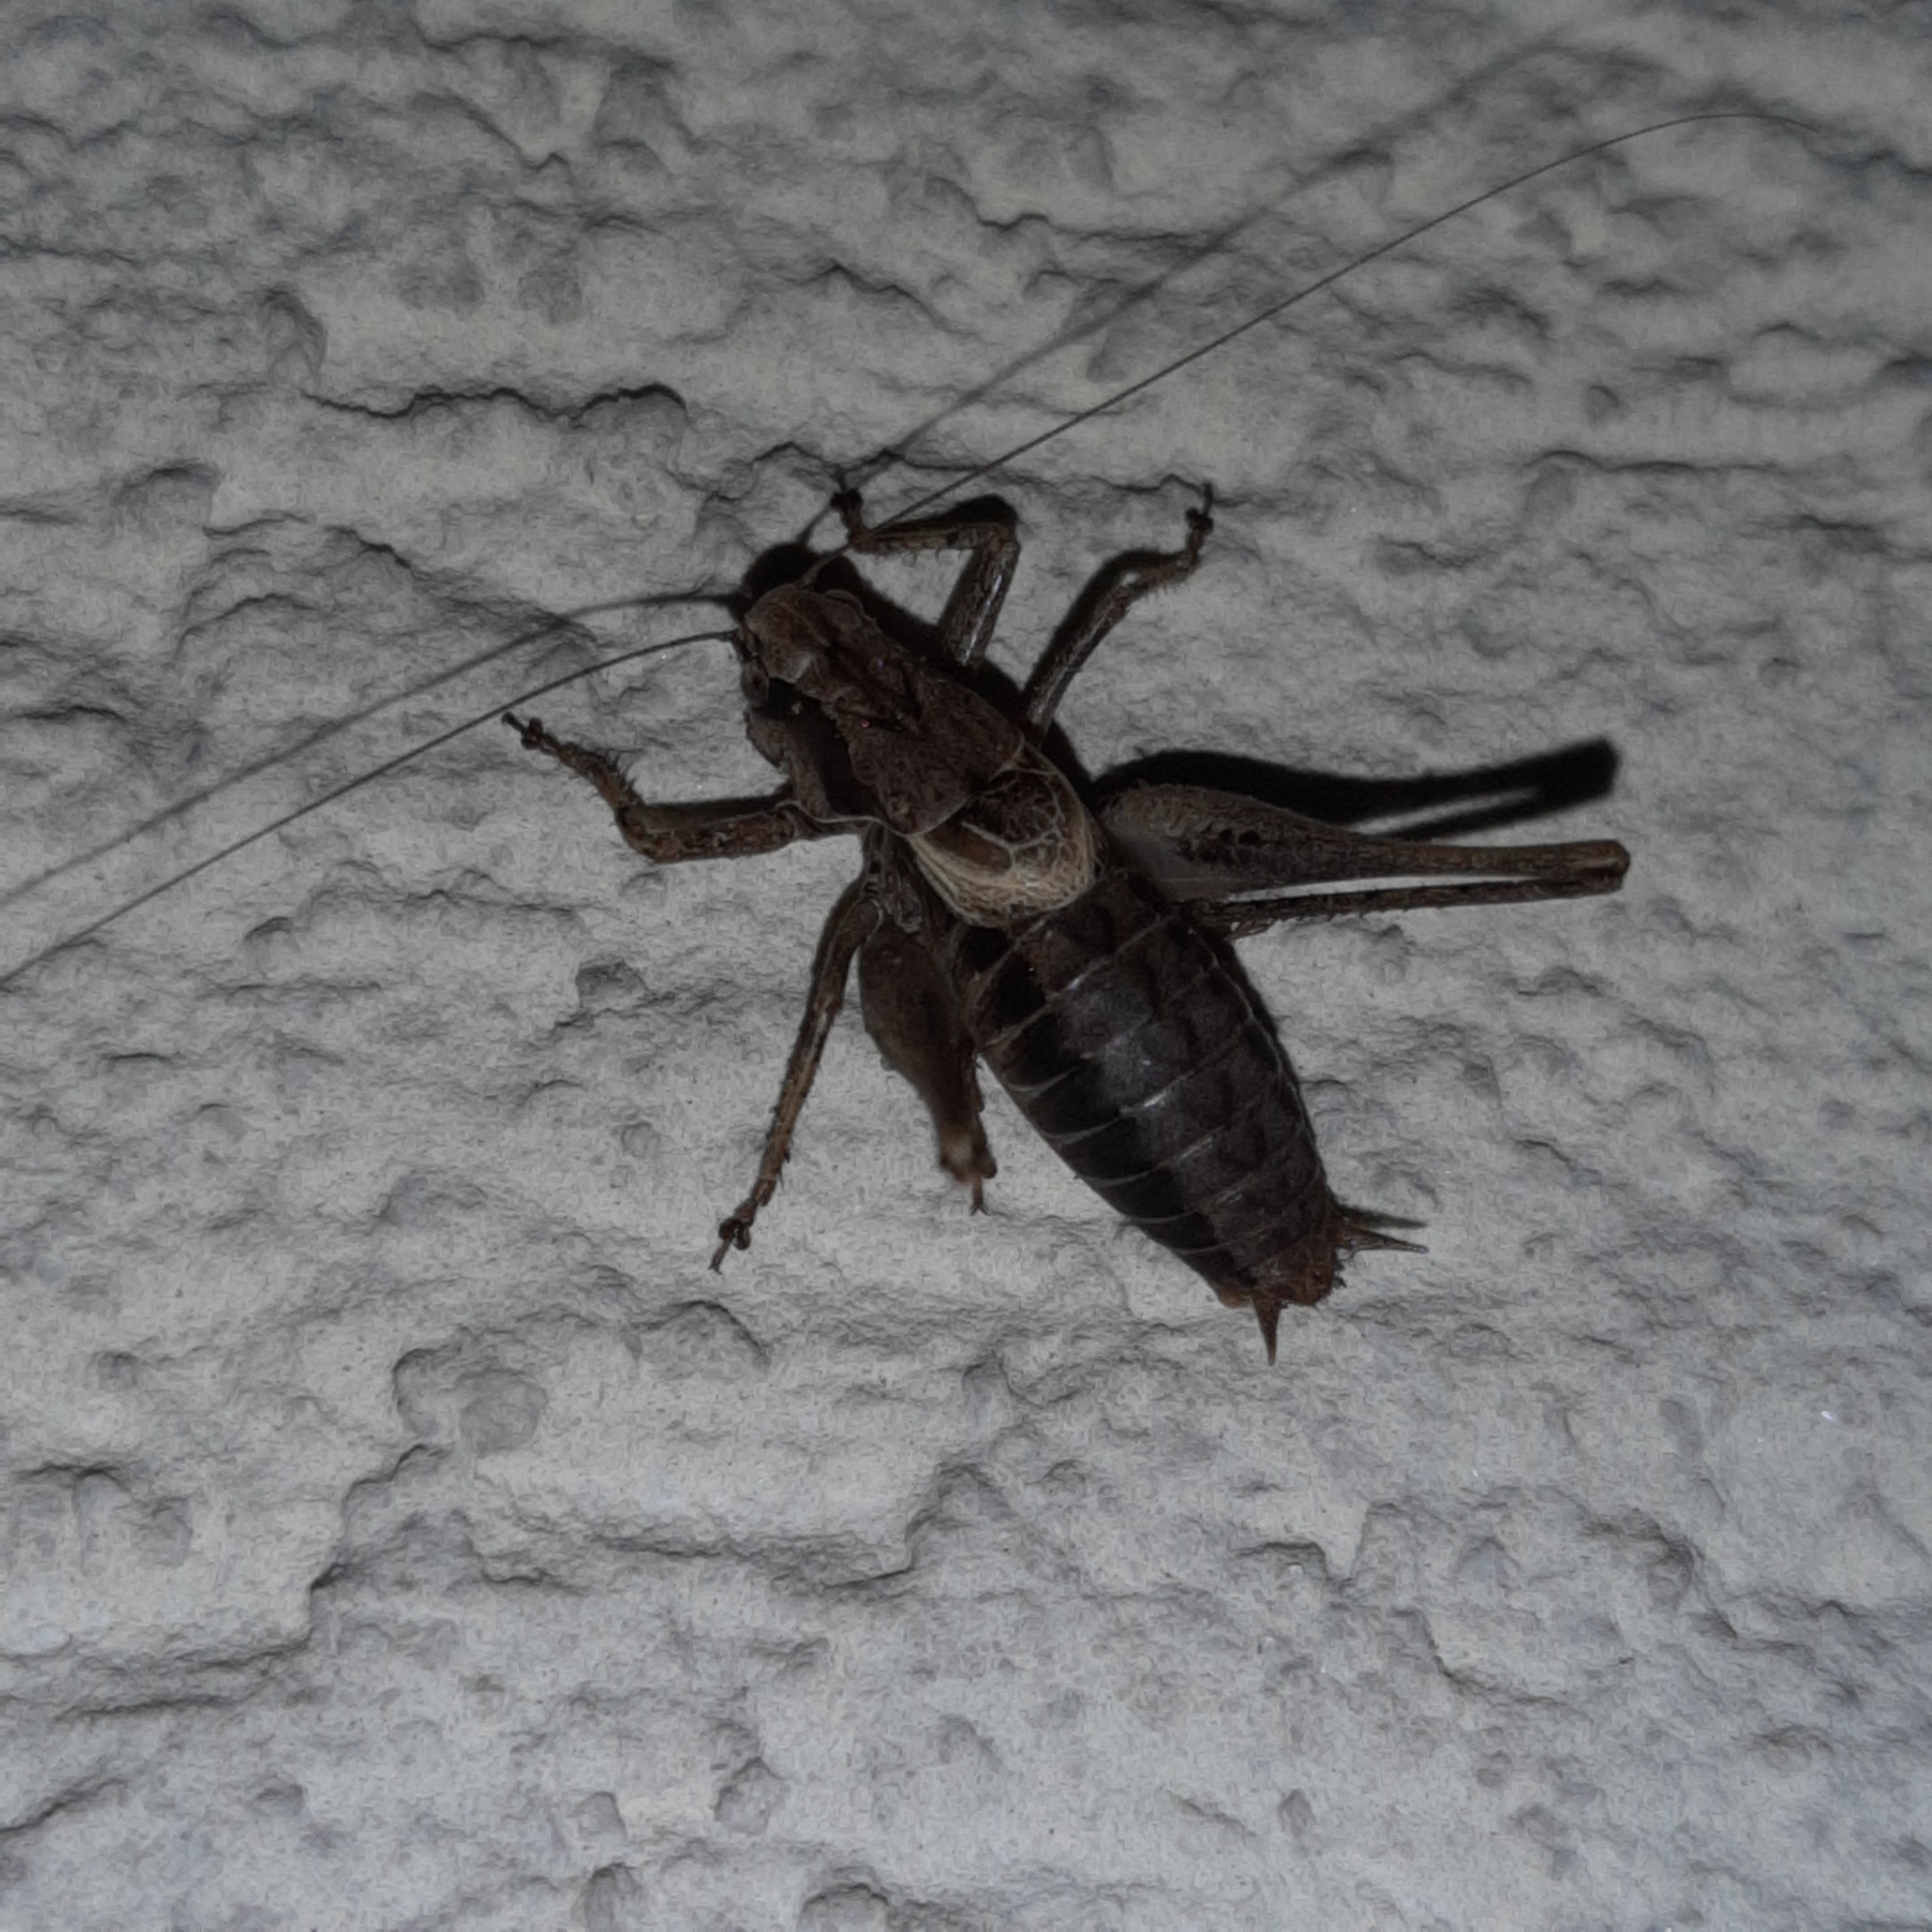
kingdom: Animalia
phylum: Arthropoda
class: Insecta
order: Orthoptera
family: Tettigoniidae
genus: Pholidoptera
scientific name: Pholidoptera griseoaptera
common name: Dark bush-cricket
